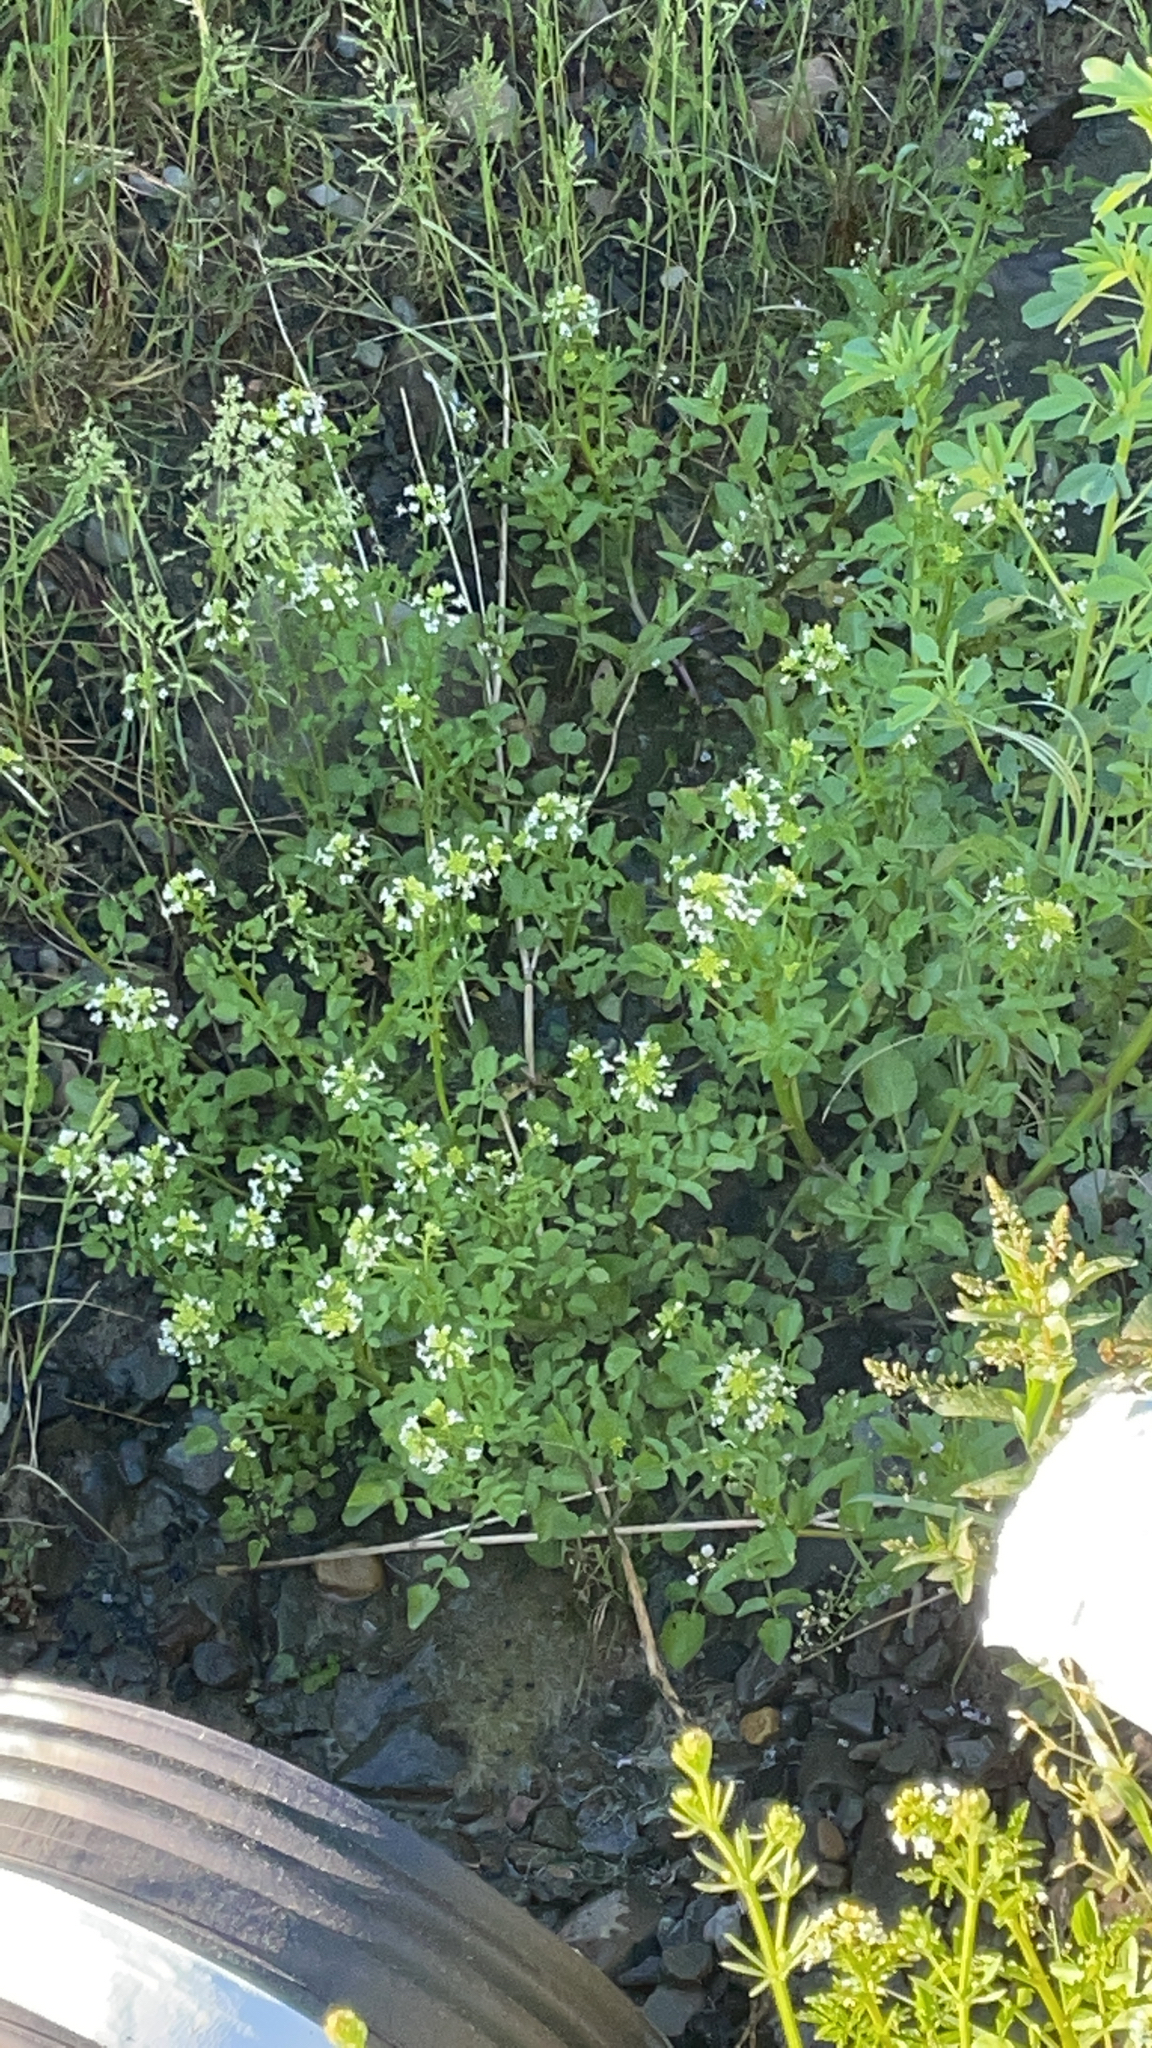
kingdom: Plantae
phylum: Tracheophyta
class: Magnoliopsida
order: Brassicales
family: Brassicaceae
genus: Nasturtium
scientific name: Nasturtium officinale
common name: Watercress
